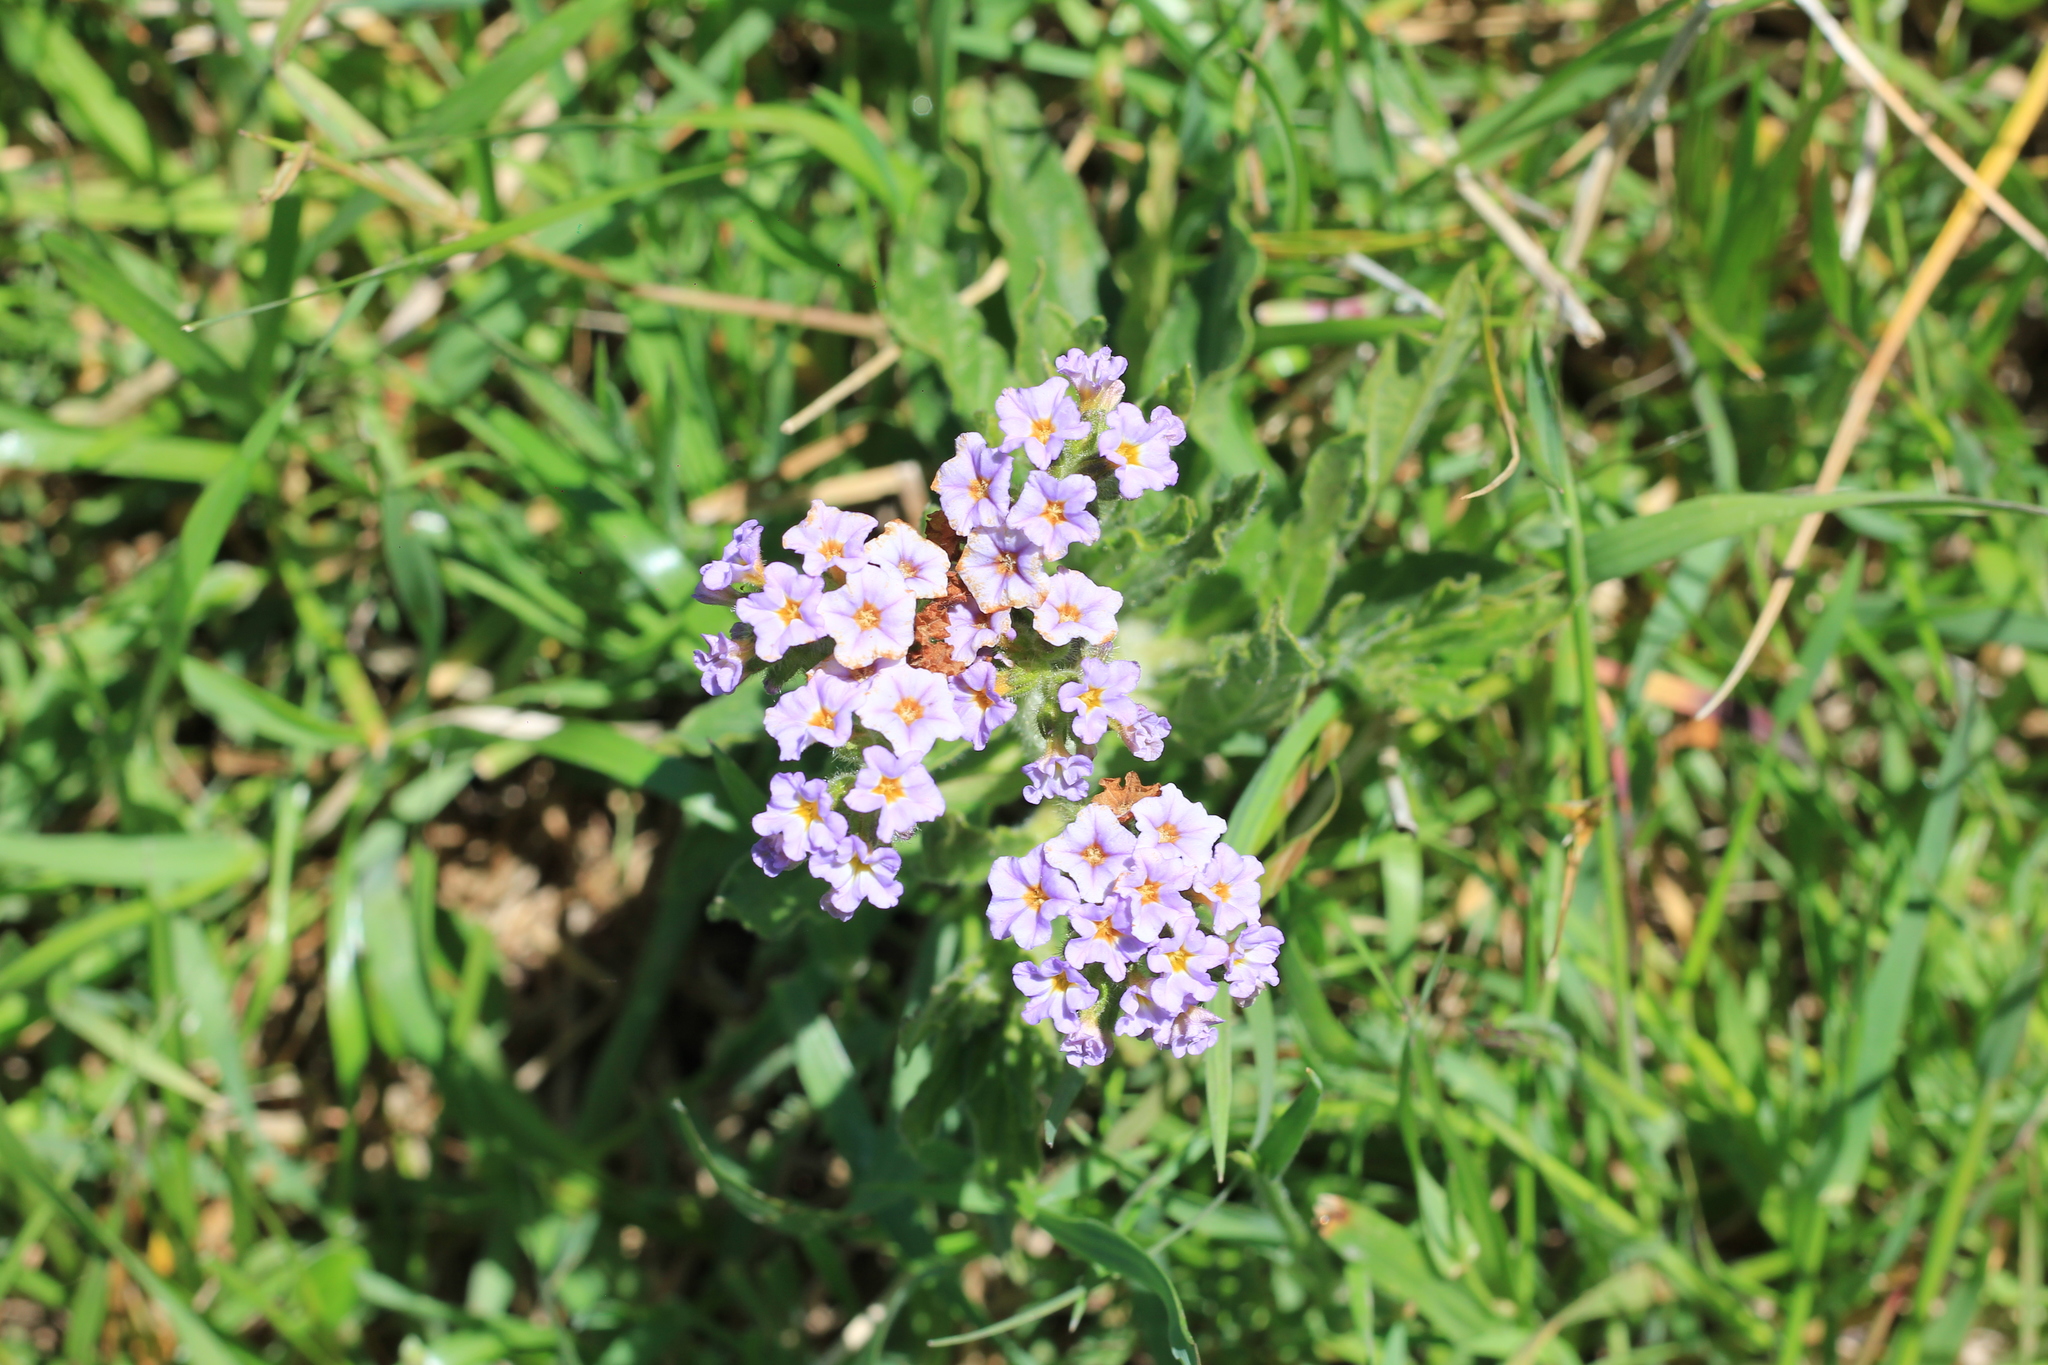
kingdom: Plantae
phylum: Tracheophyta
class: Magnoliopsida
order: Boraginales
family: Heliotropiaceae
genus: Heliotropium
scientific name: Heliotropium amplexicaule
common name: Clasping heliotrope
